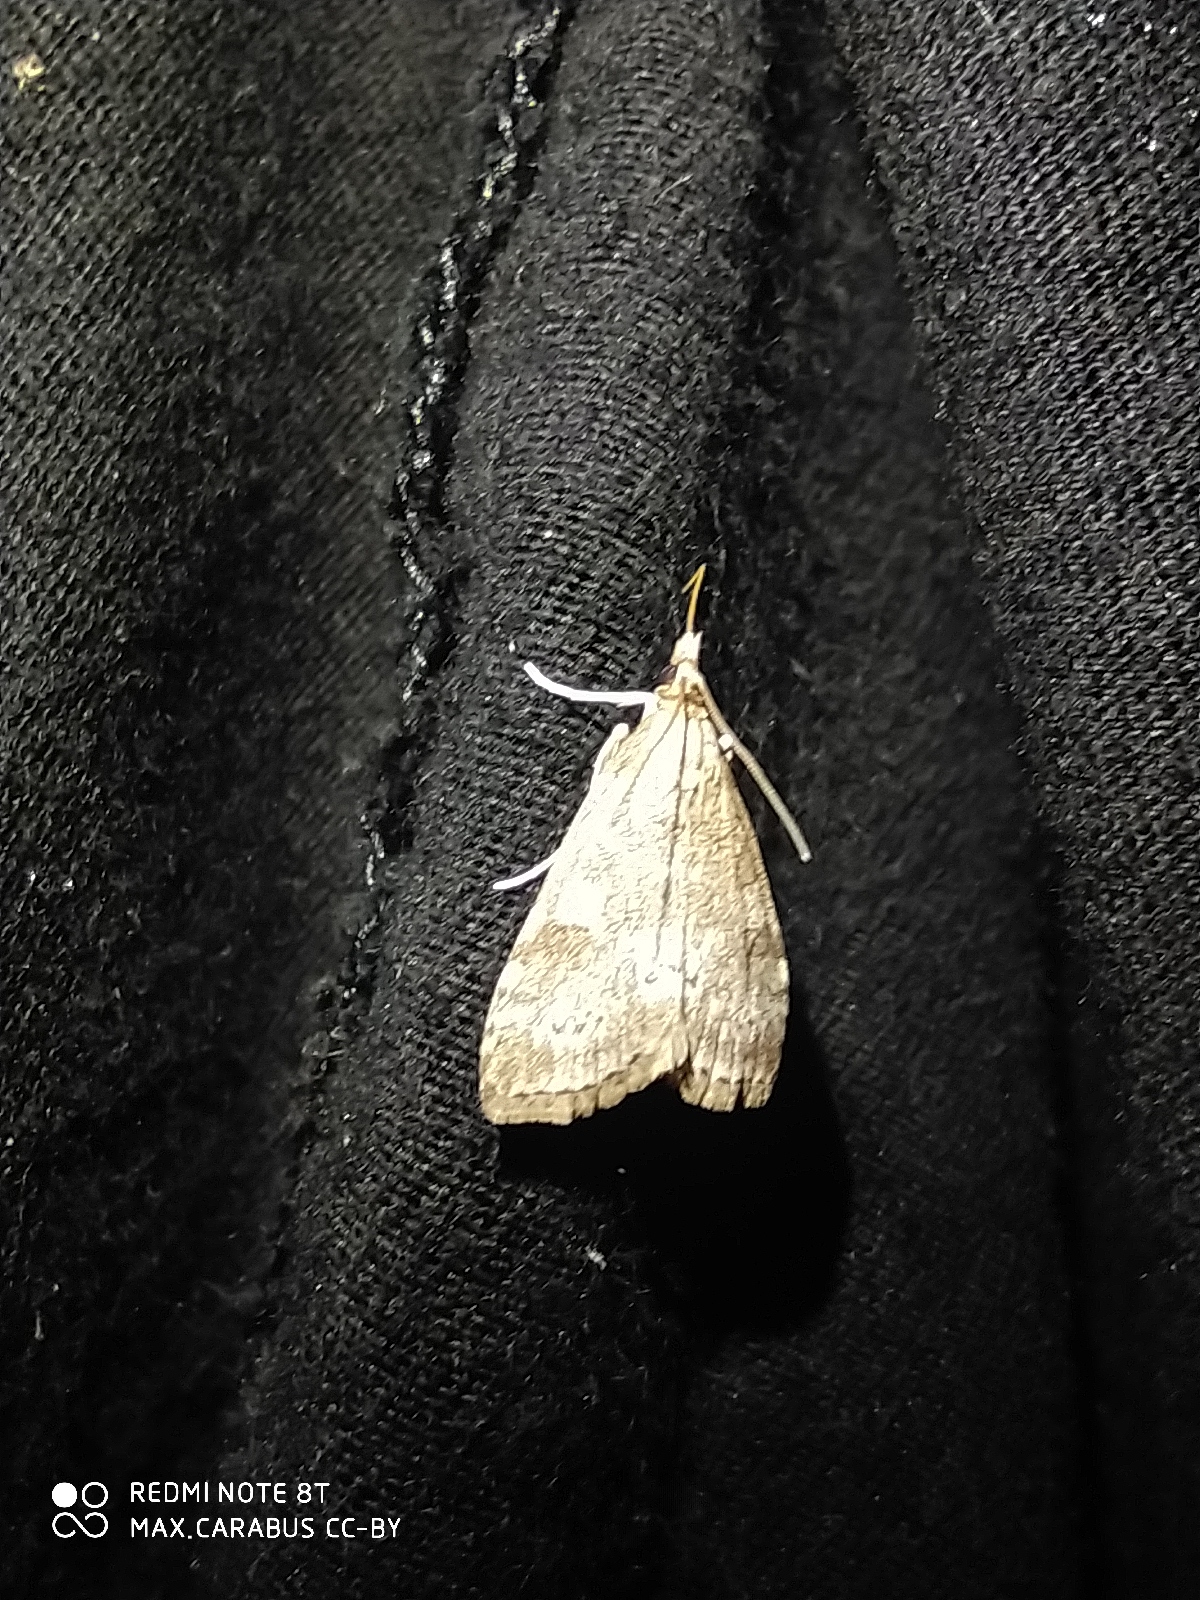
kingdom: Animalia
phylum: Arthropoda
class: Insecta
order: Lepidoptera
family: Drepanidae
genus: Ochropacha
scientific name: Ochropacha duplaris
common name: Common lutestring
